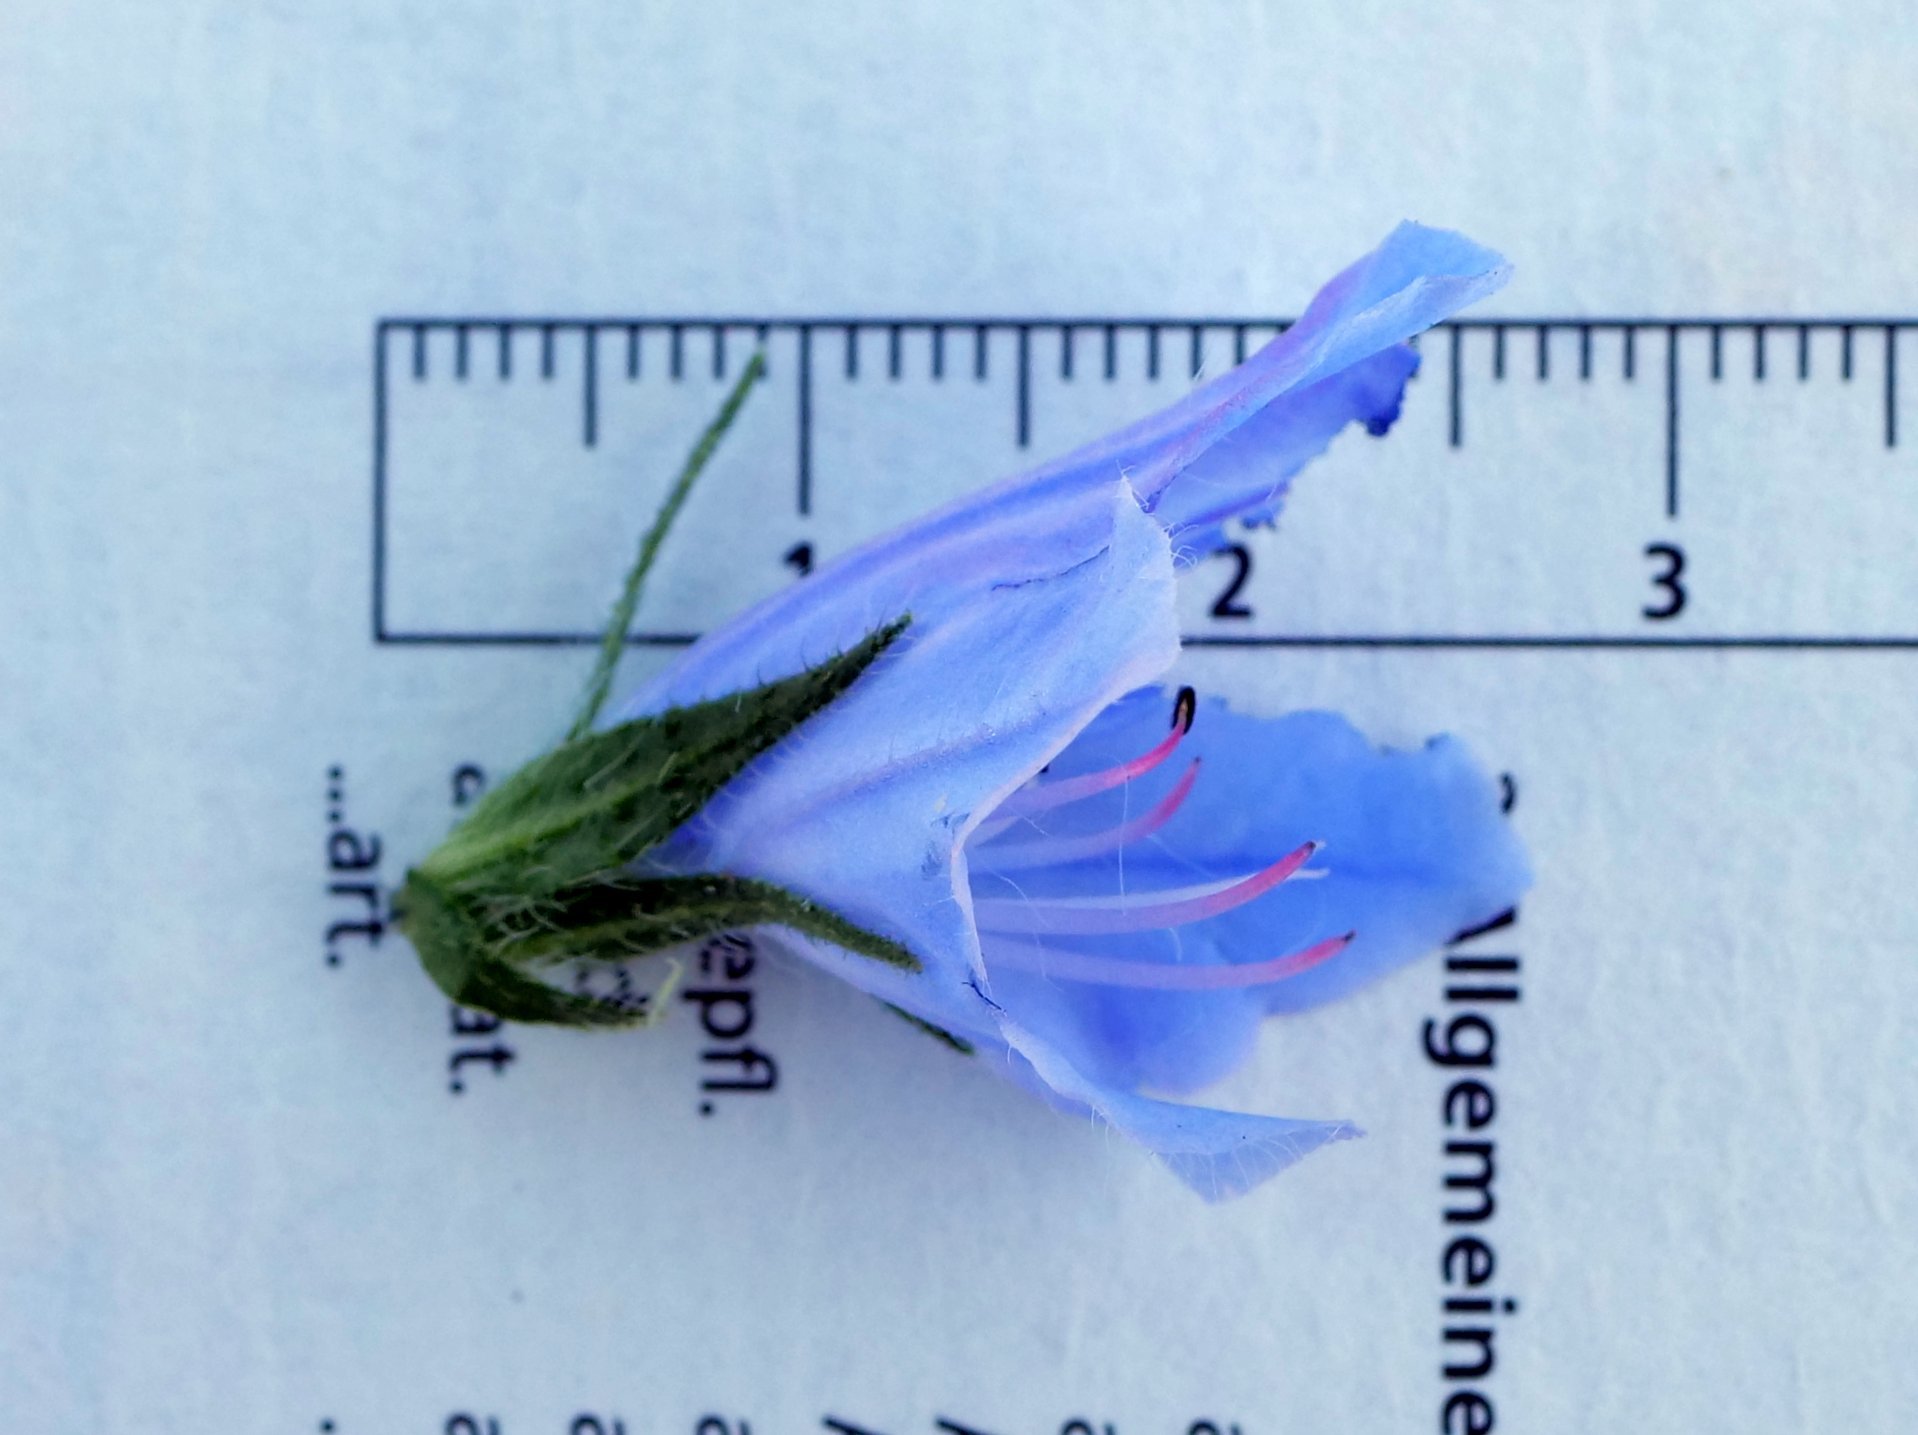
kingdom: Plantae
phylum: Tracheophyta
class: Magnoliopsida
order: Boraginales
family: Boraginaceae
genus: Echium
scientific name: Echium plantagineum
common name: Purple viper's-bugloss
